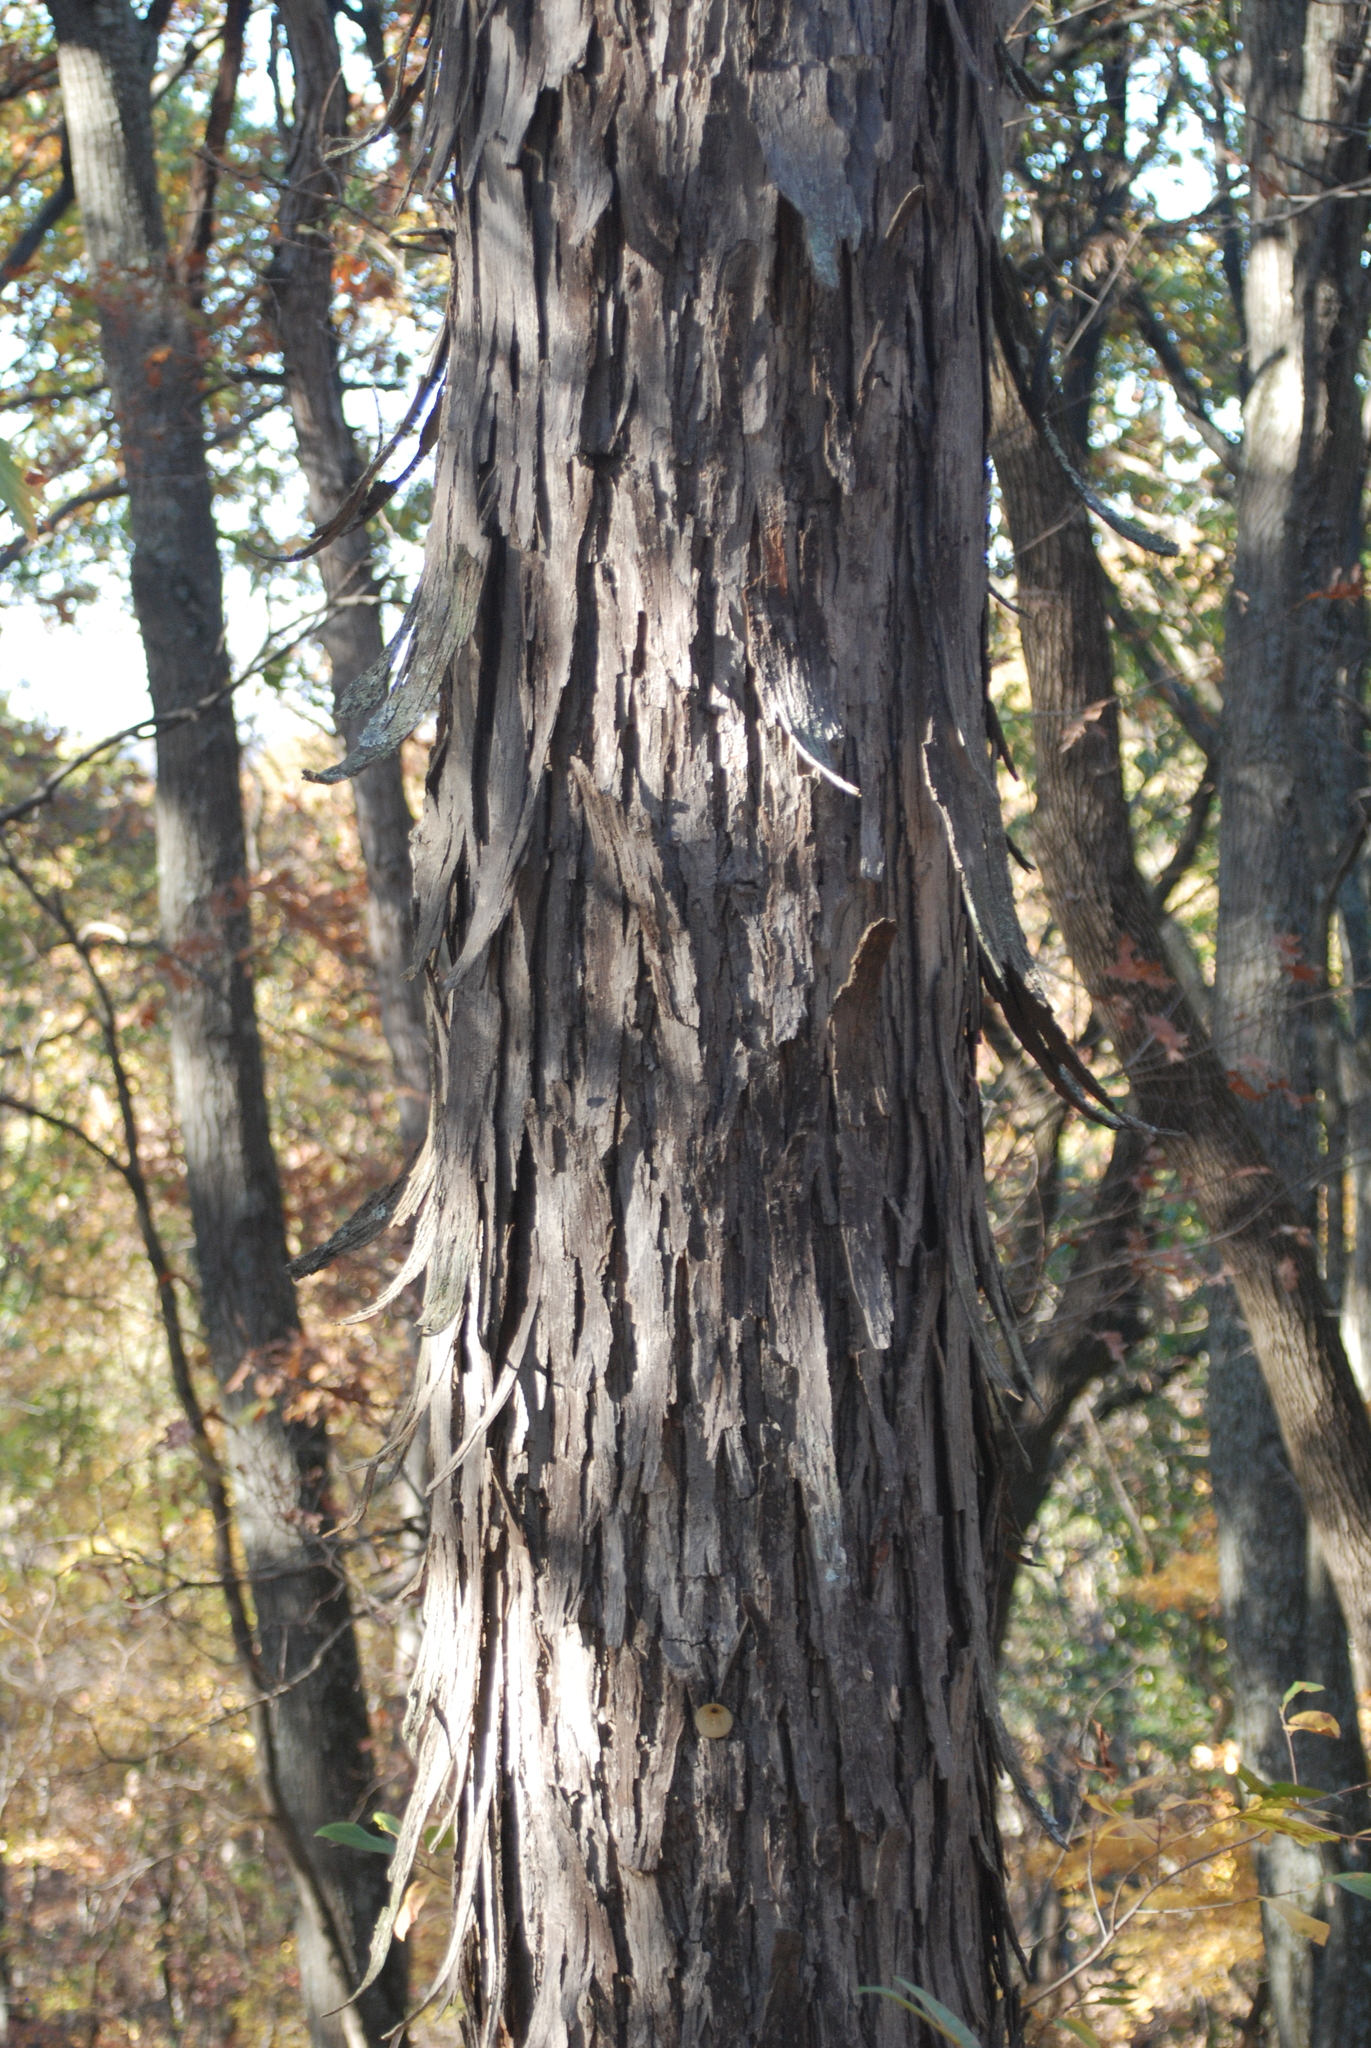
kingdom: Plantae
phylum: Tracheophyta
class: Magnoliopsida
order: Fagales
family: Juglandaceae
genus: Carya
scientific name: Carya ovata
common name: Shagbark hickory
